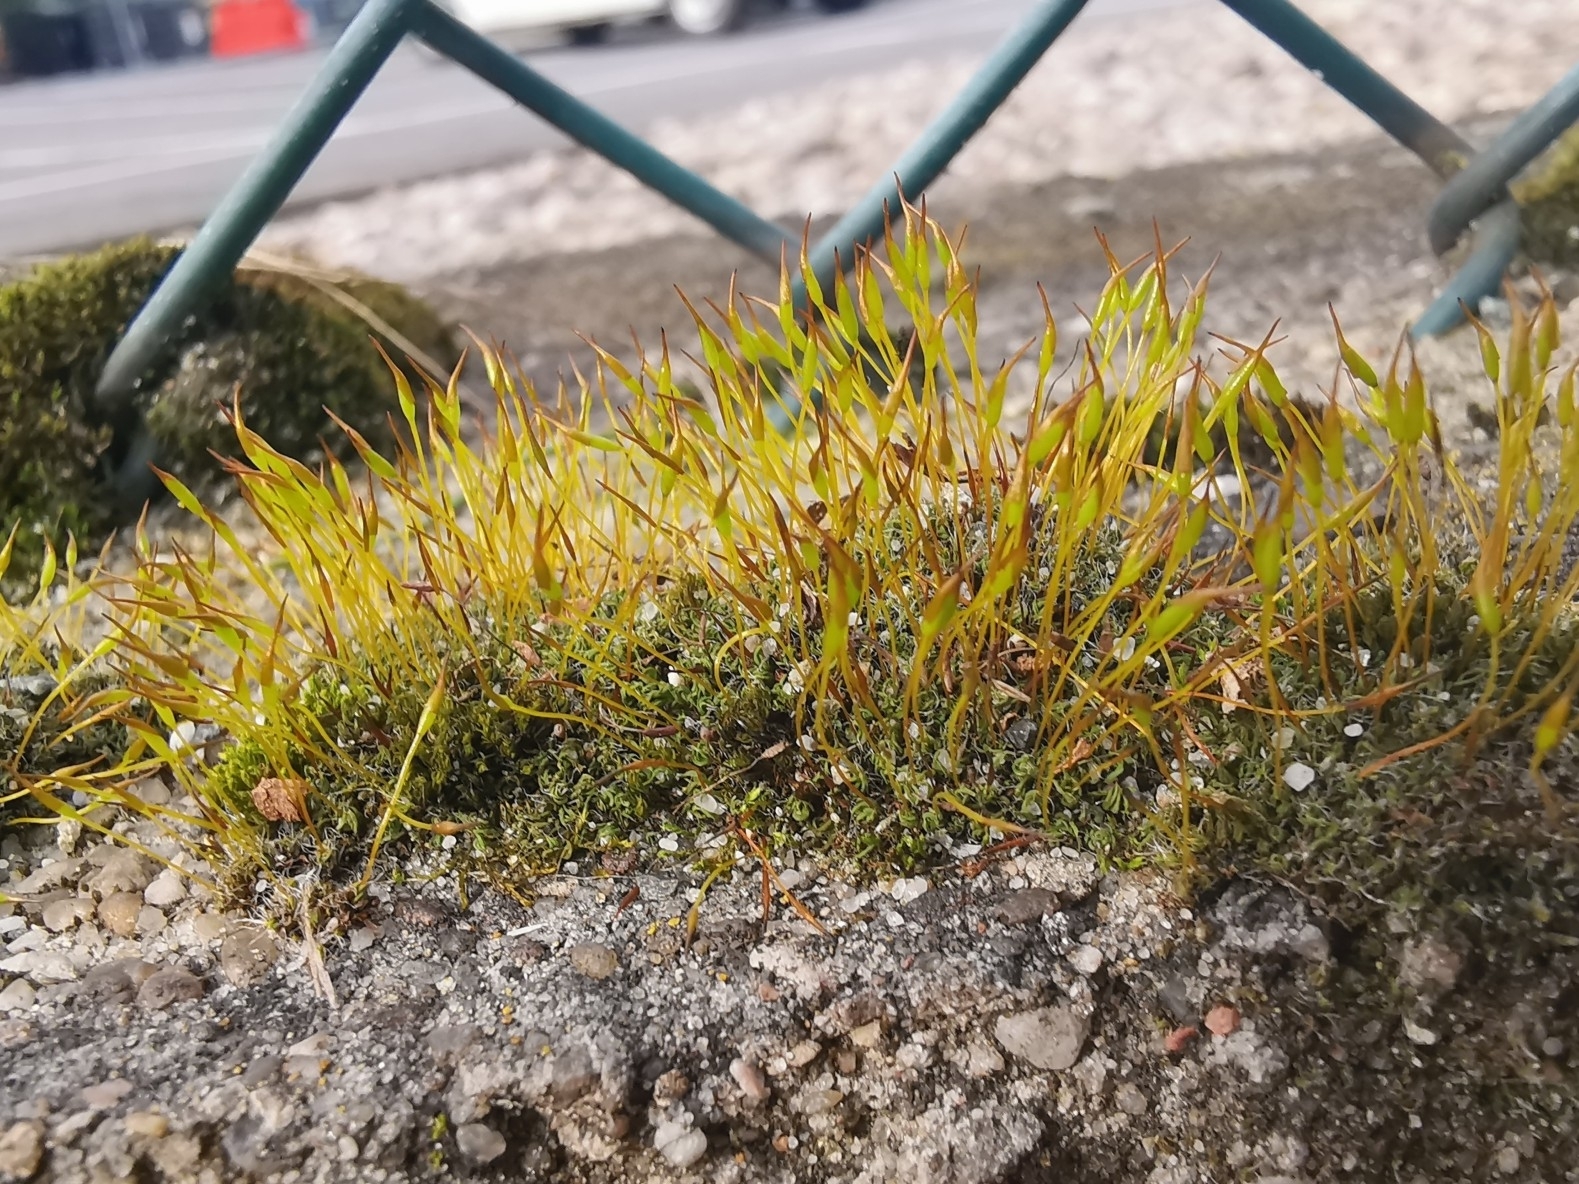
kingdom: Plantae
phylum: Bryophyta
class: Bryopsida
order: Pottiales
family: Pottiaceae
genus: Tortula
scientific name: Tortula muralis
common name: Wall screw-moss
